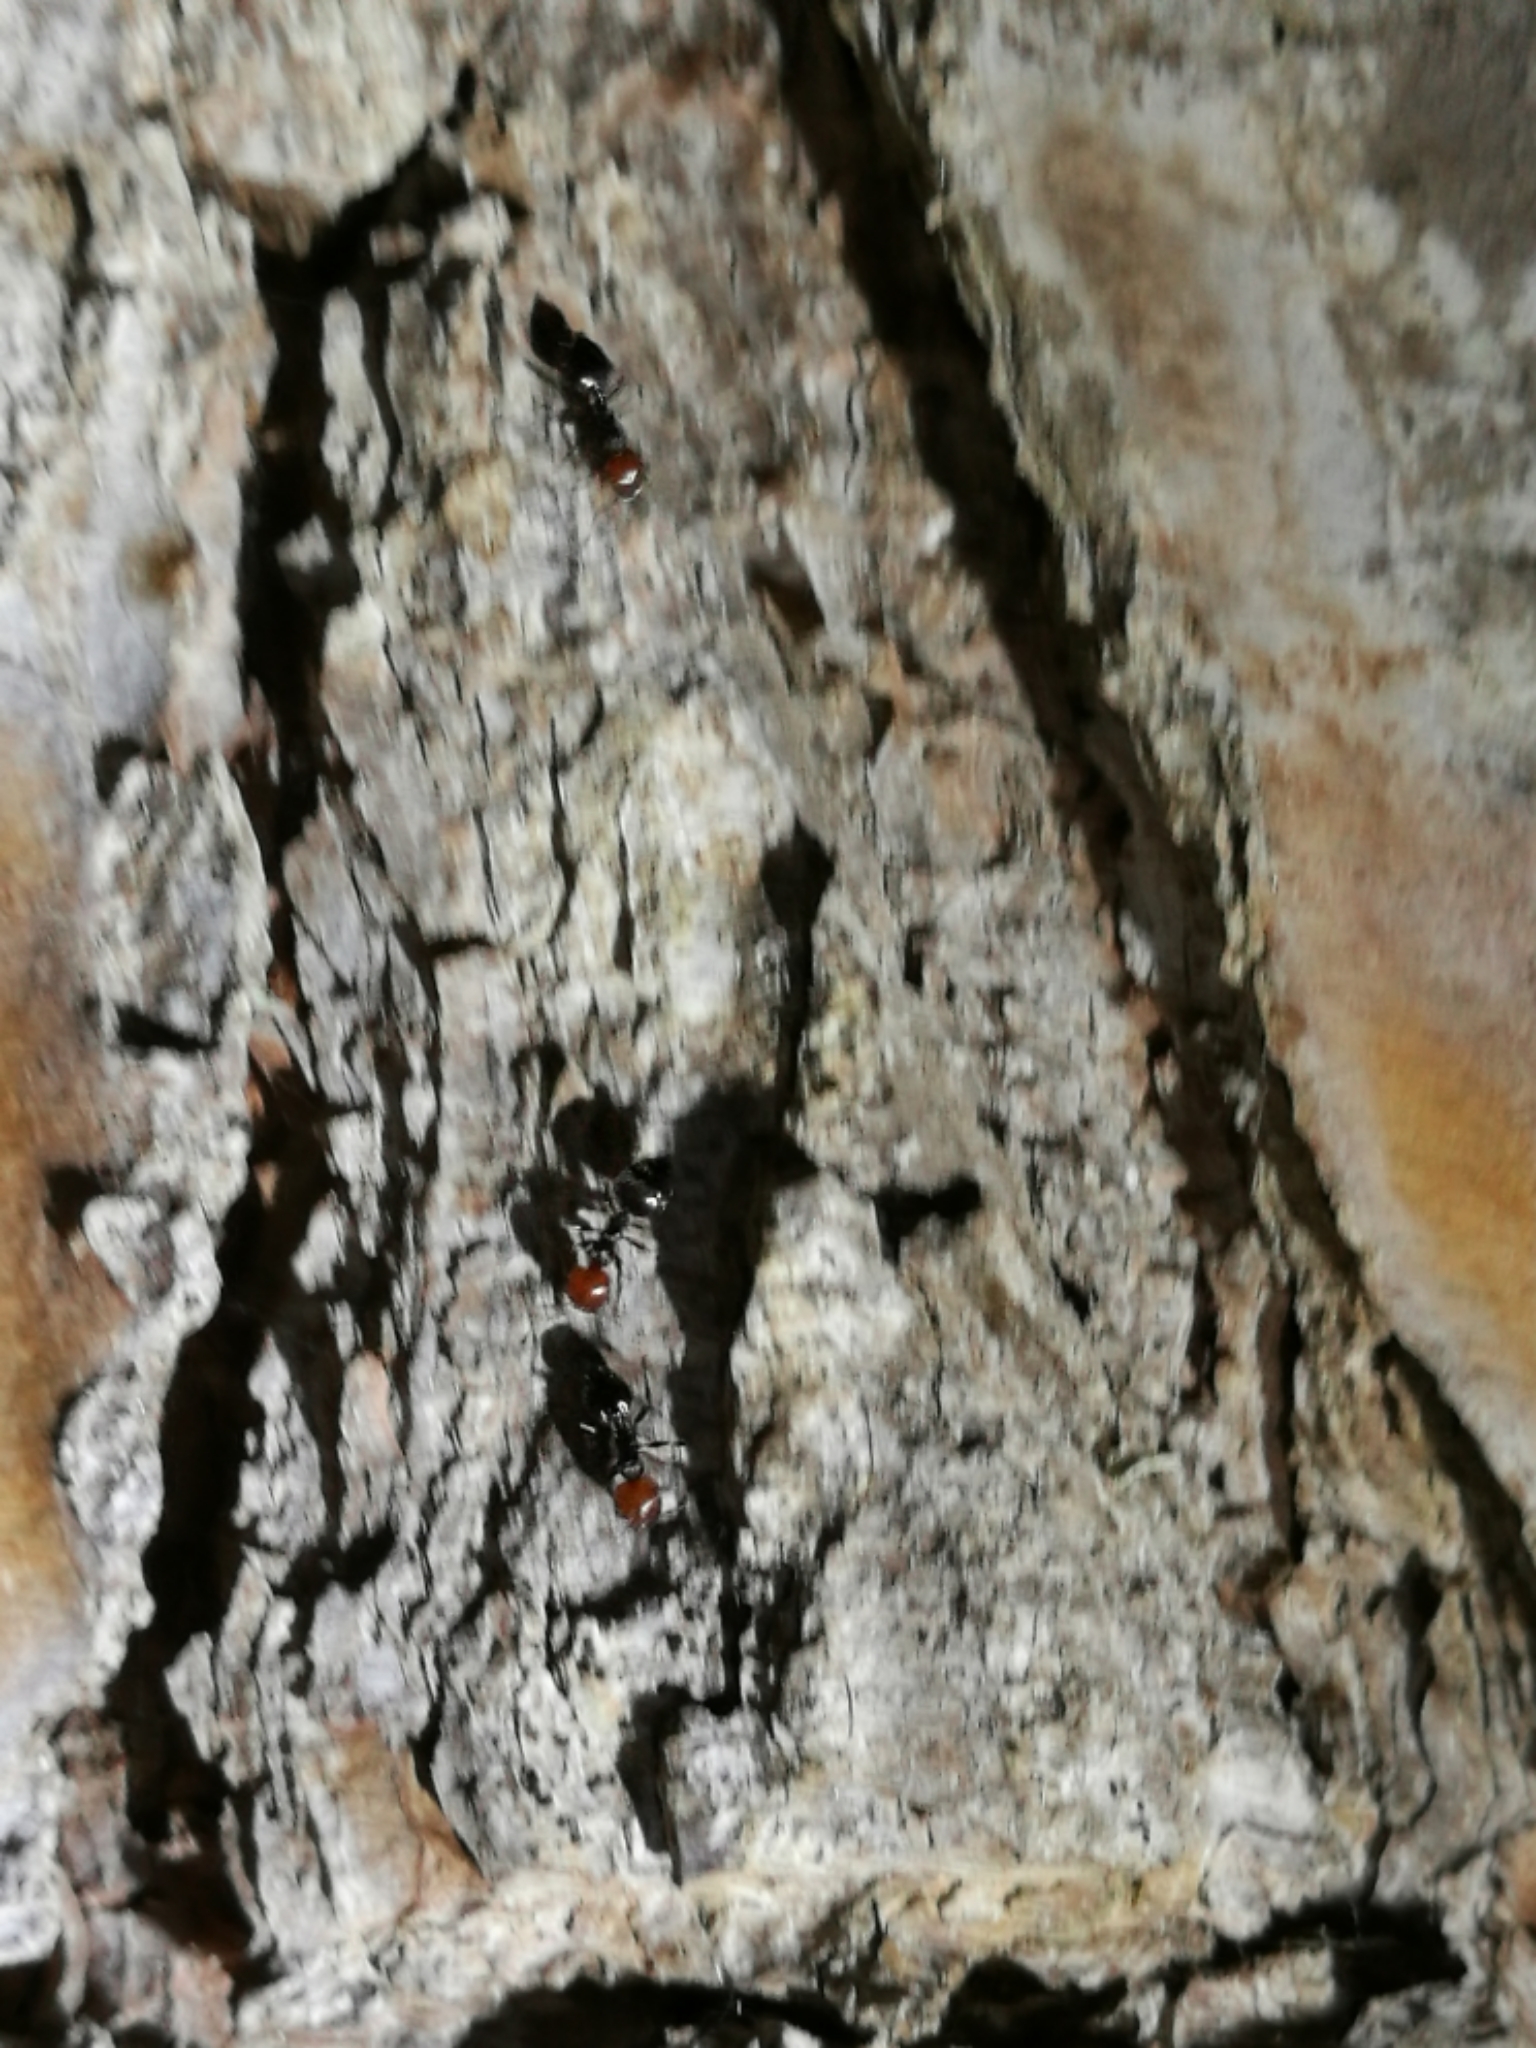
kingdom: Animalia
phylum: Arthropoda
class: Insecta
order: Hymenoptera
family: Formicidae
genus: Crematogaster
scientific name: Crematogaster scutellaris
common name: Fourmi du liège
